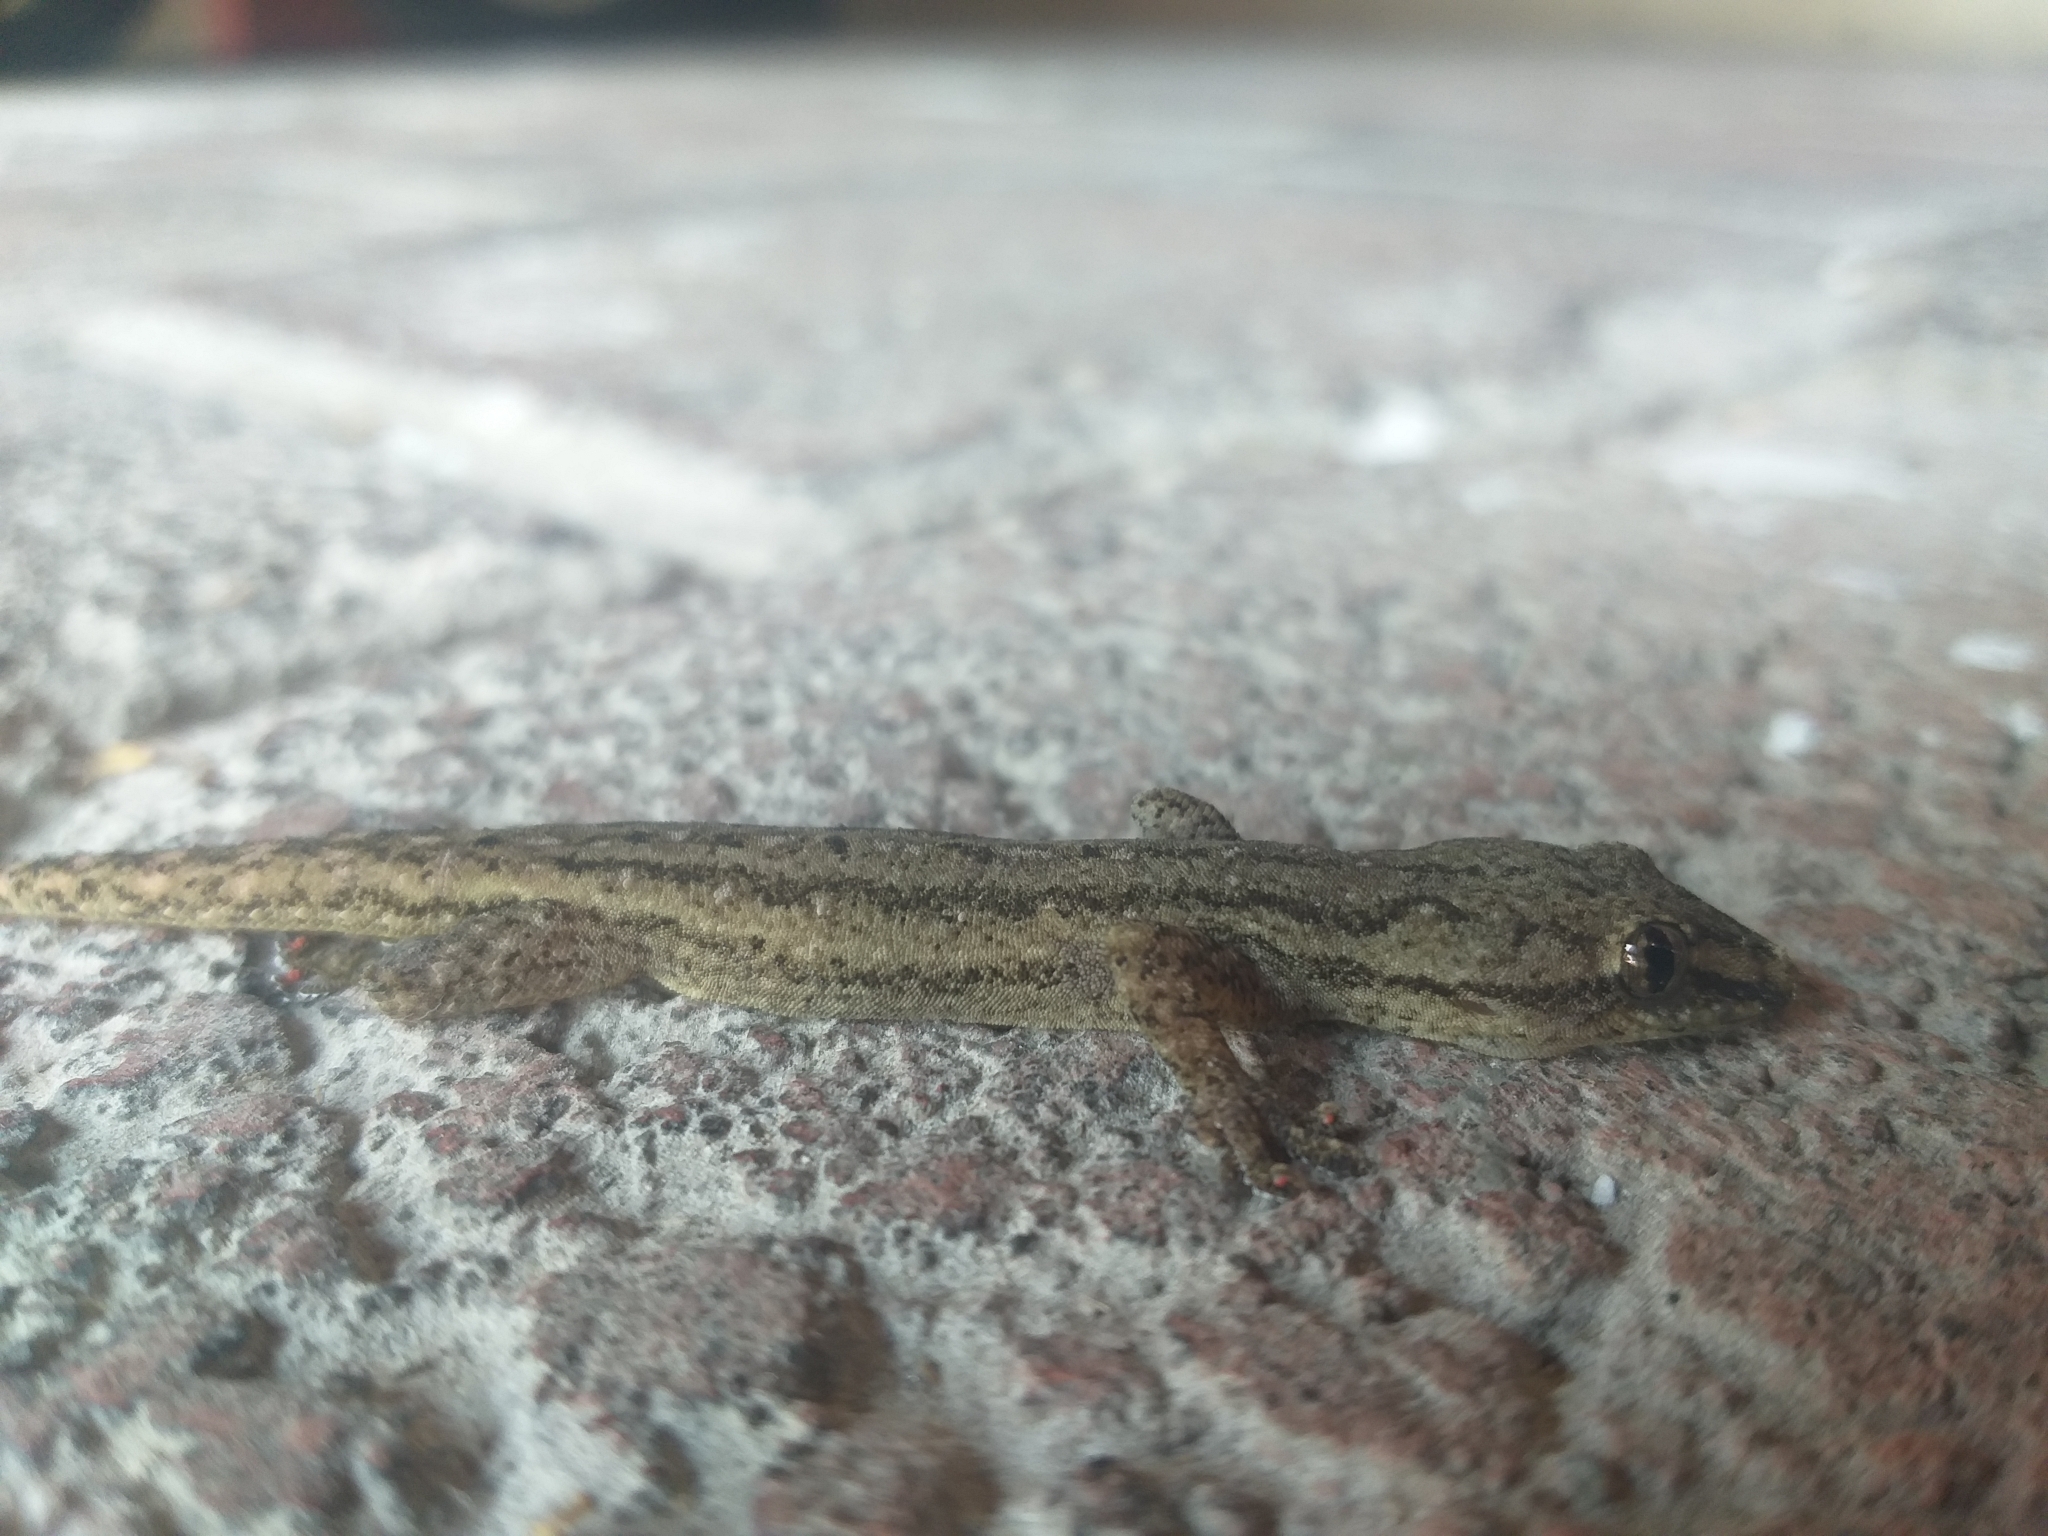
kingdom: Animalia
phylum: Chordata
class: Squamata
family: Gekkonidae
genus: Hemidactylus
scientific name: Hemidactylus frenatus
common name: Common house gecko
